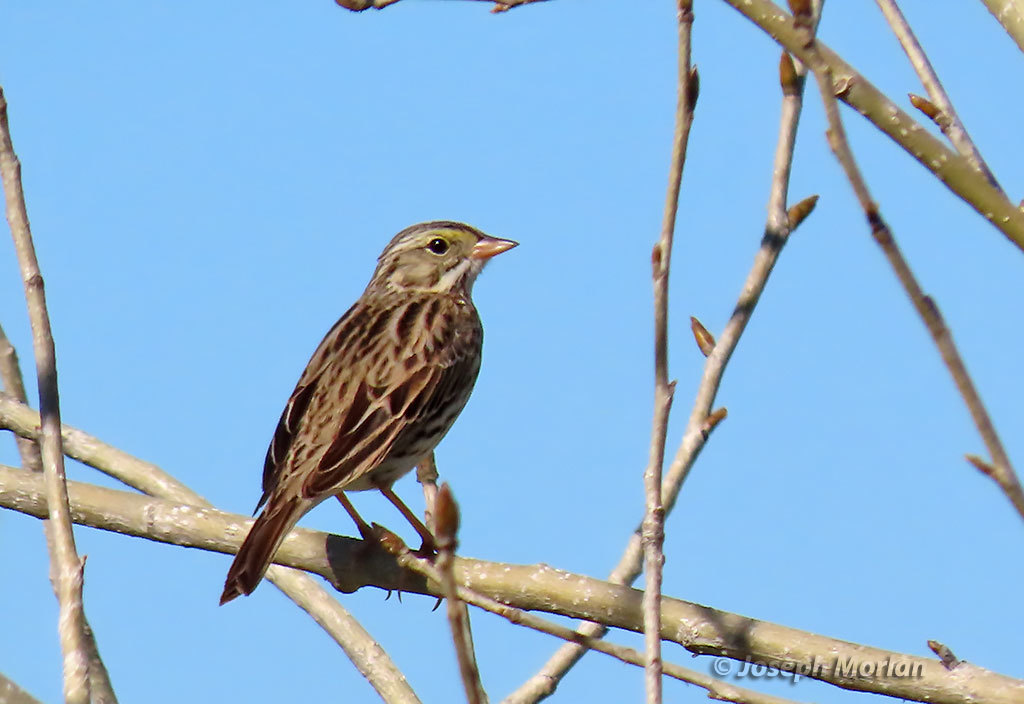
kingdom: Animalia
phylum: Chordata
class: Aves
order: Passeriformes
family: Passerellidae
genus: Passerculus
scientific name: Passerculus sandwichensis
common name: Savannah sparrow
